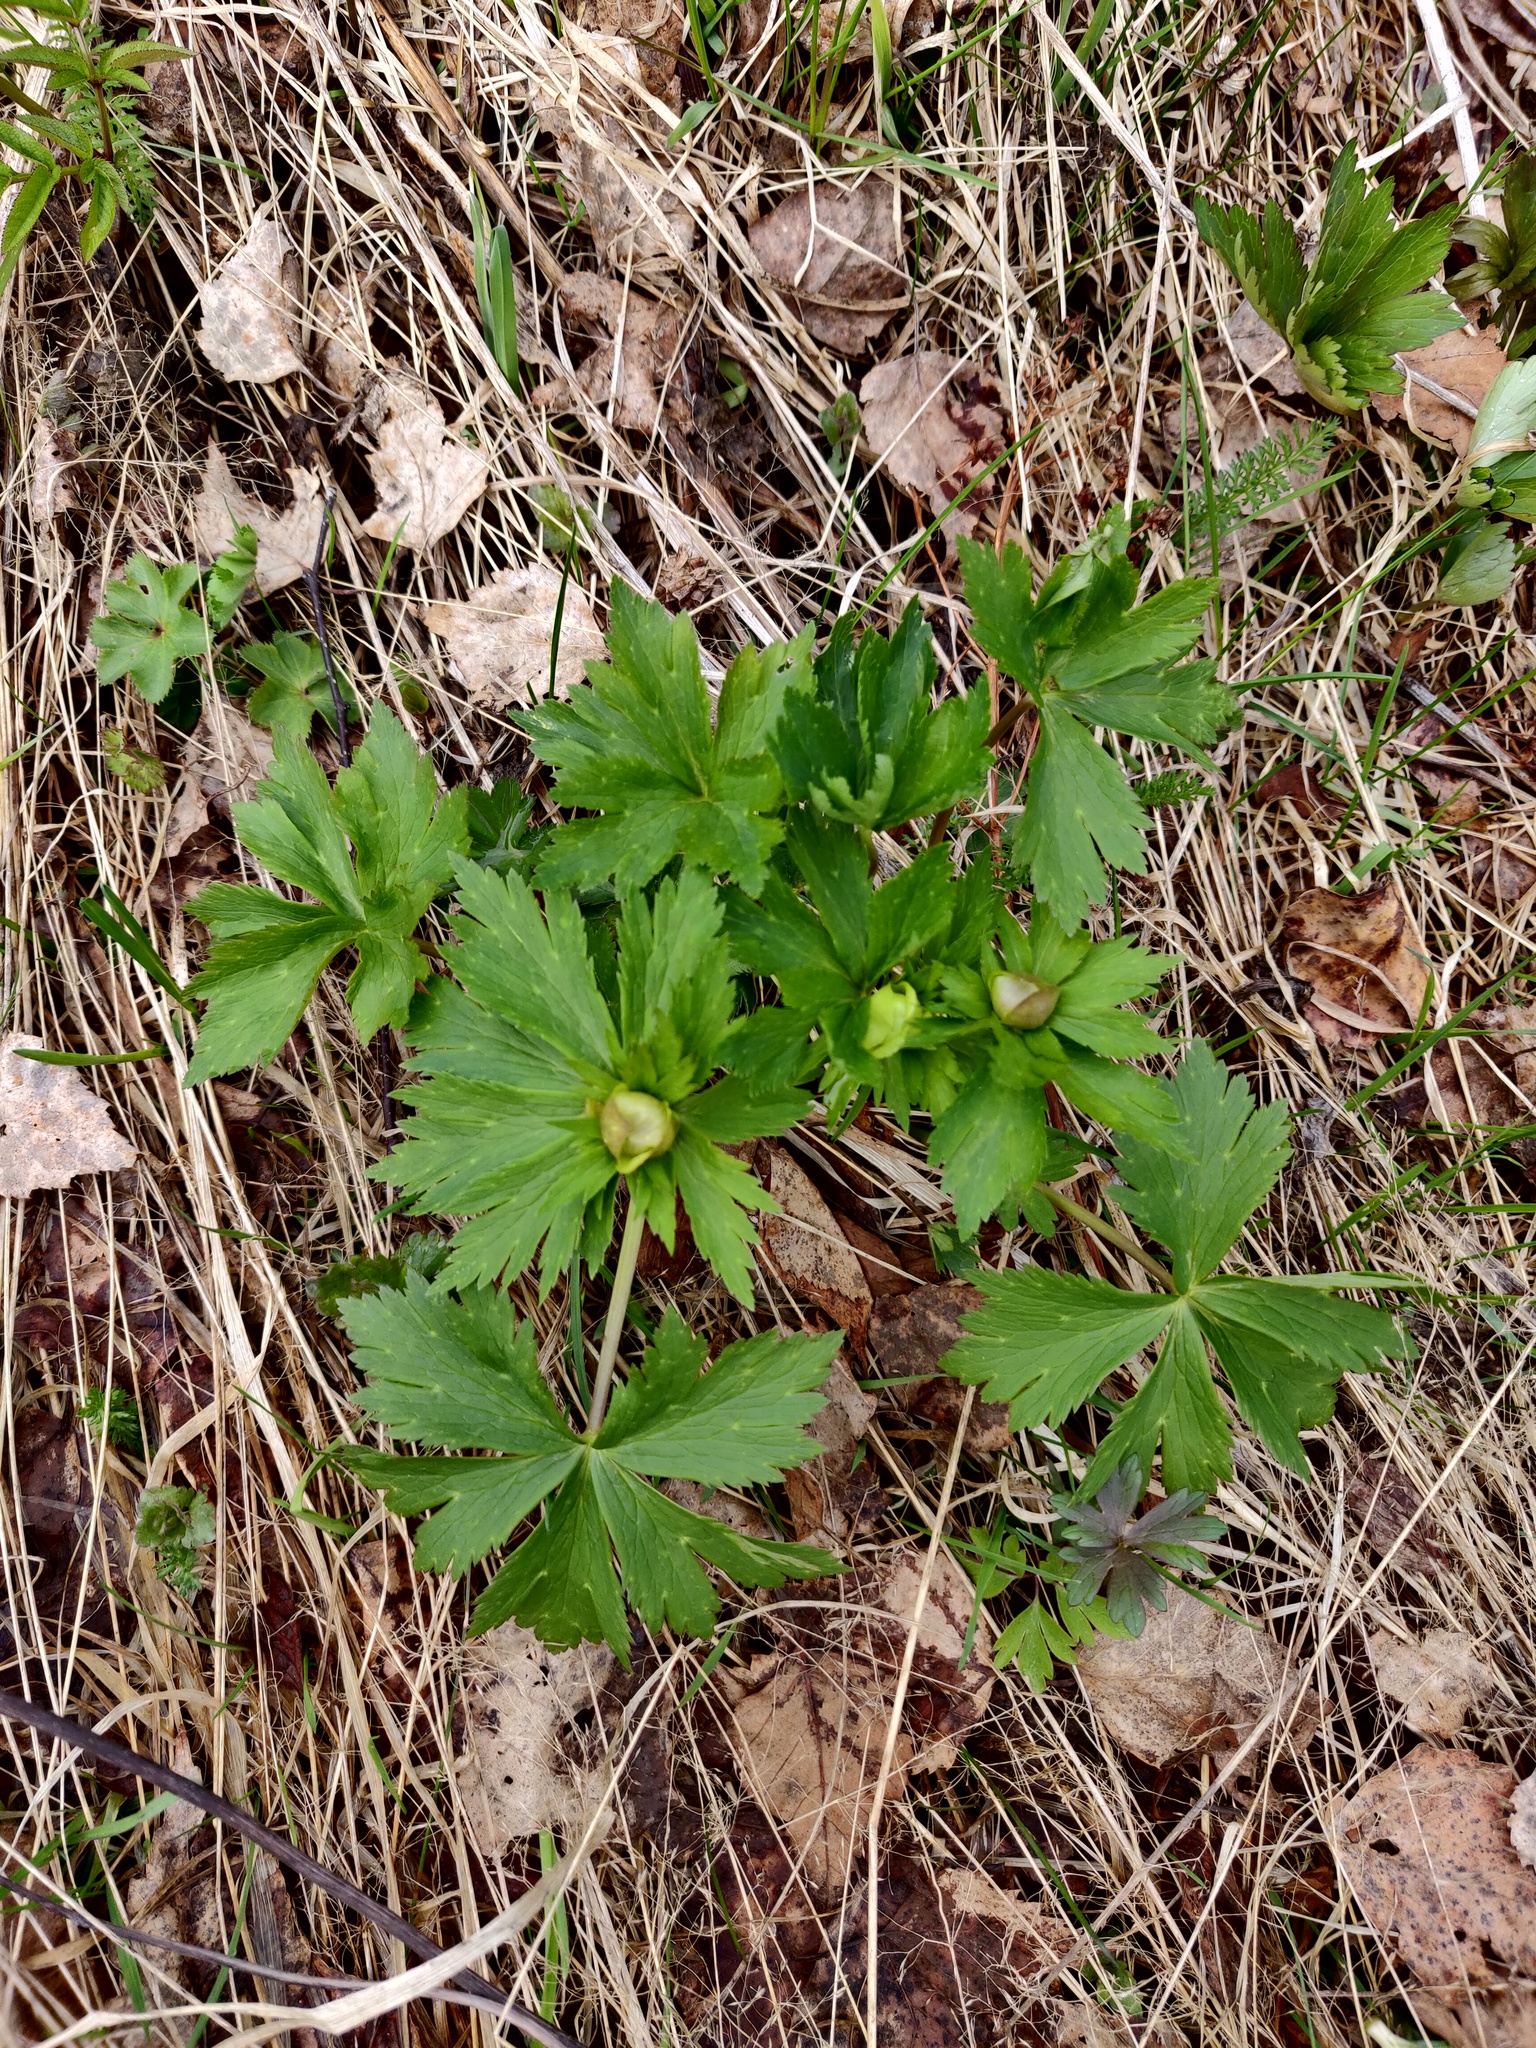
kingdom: Plantae
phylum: Tracheophyta
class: Magnoliopsida
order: Ranunculales
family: Ranunculaceae
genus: Trollius
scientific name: Trollius europaeus
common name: European globeflower
